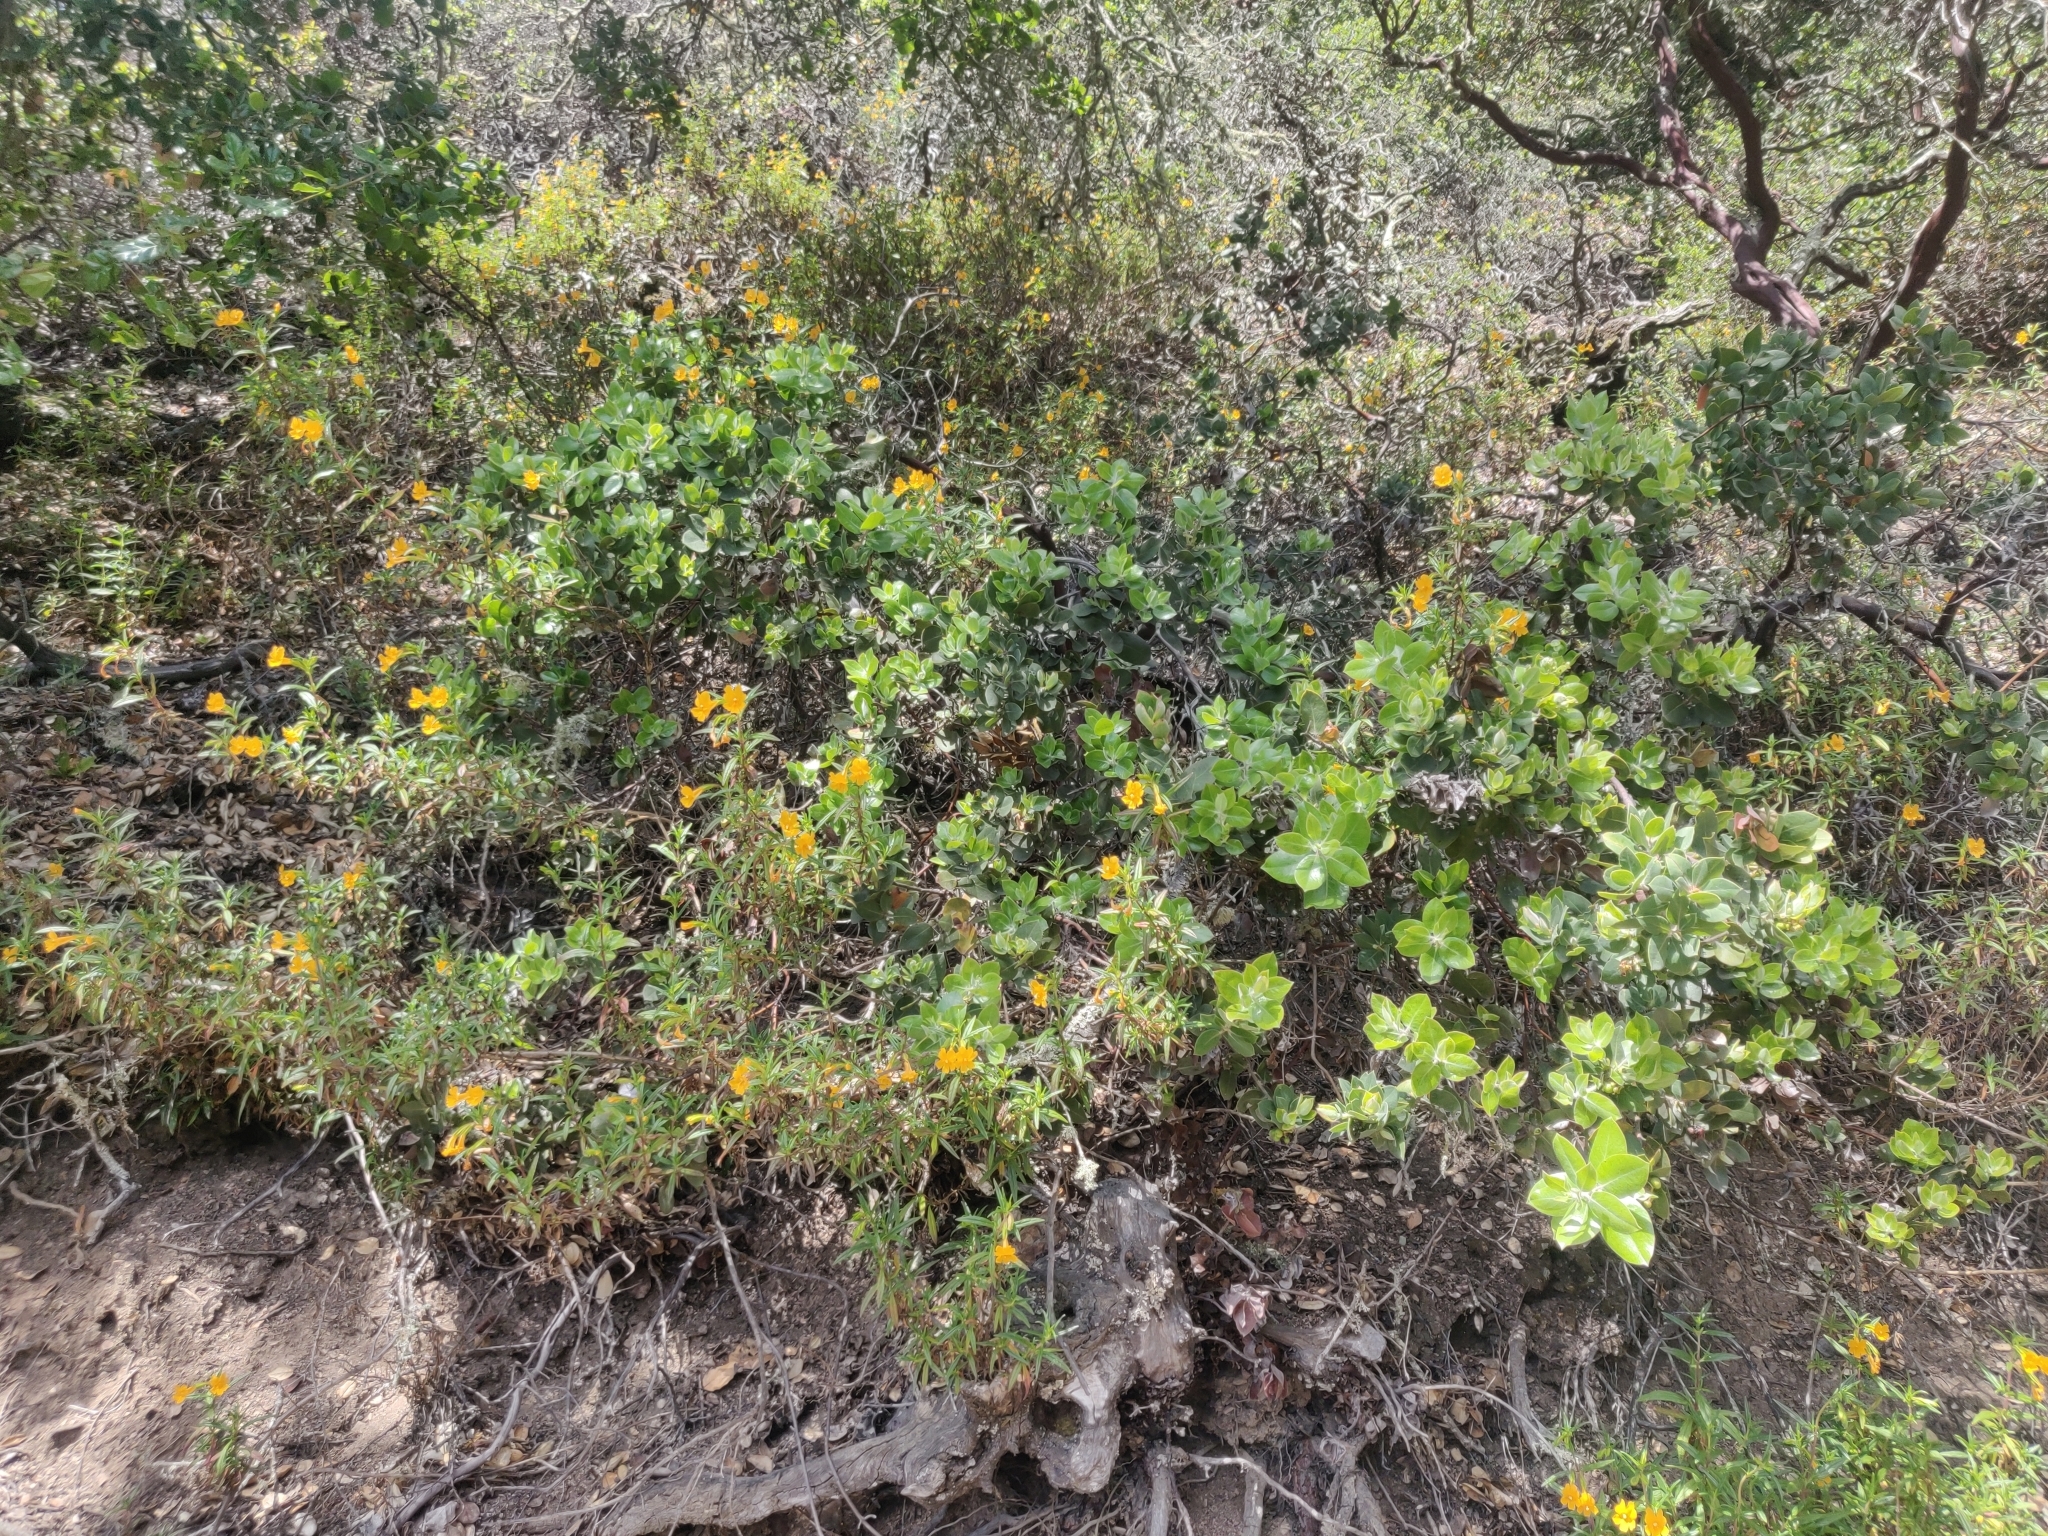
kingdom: Plantae
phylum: Tracheophyta
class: Magnoliopsida
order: Ericales
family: Ericaceae
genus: Arctostaphylos
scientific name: Arctostaphylos crustacea
